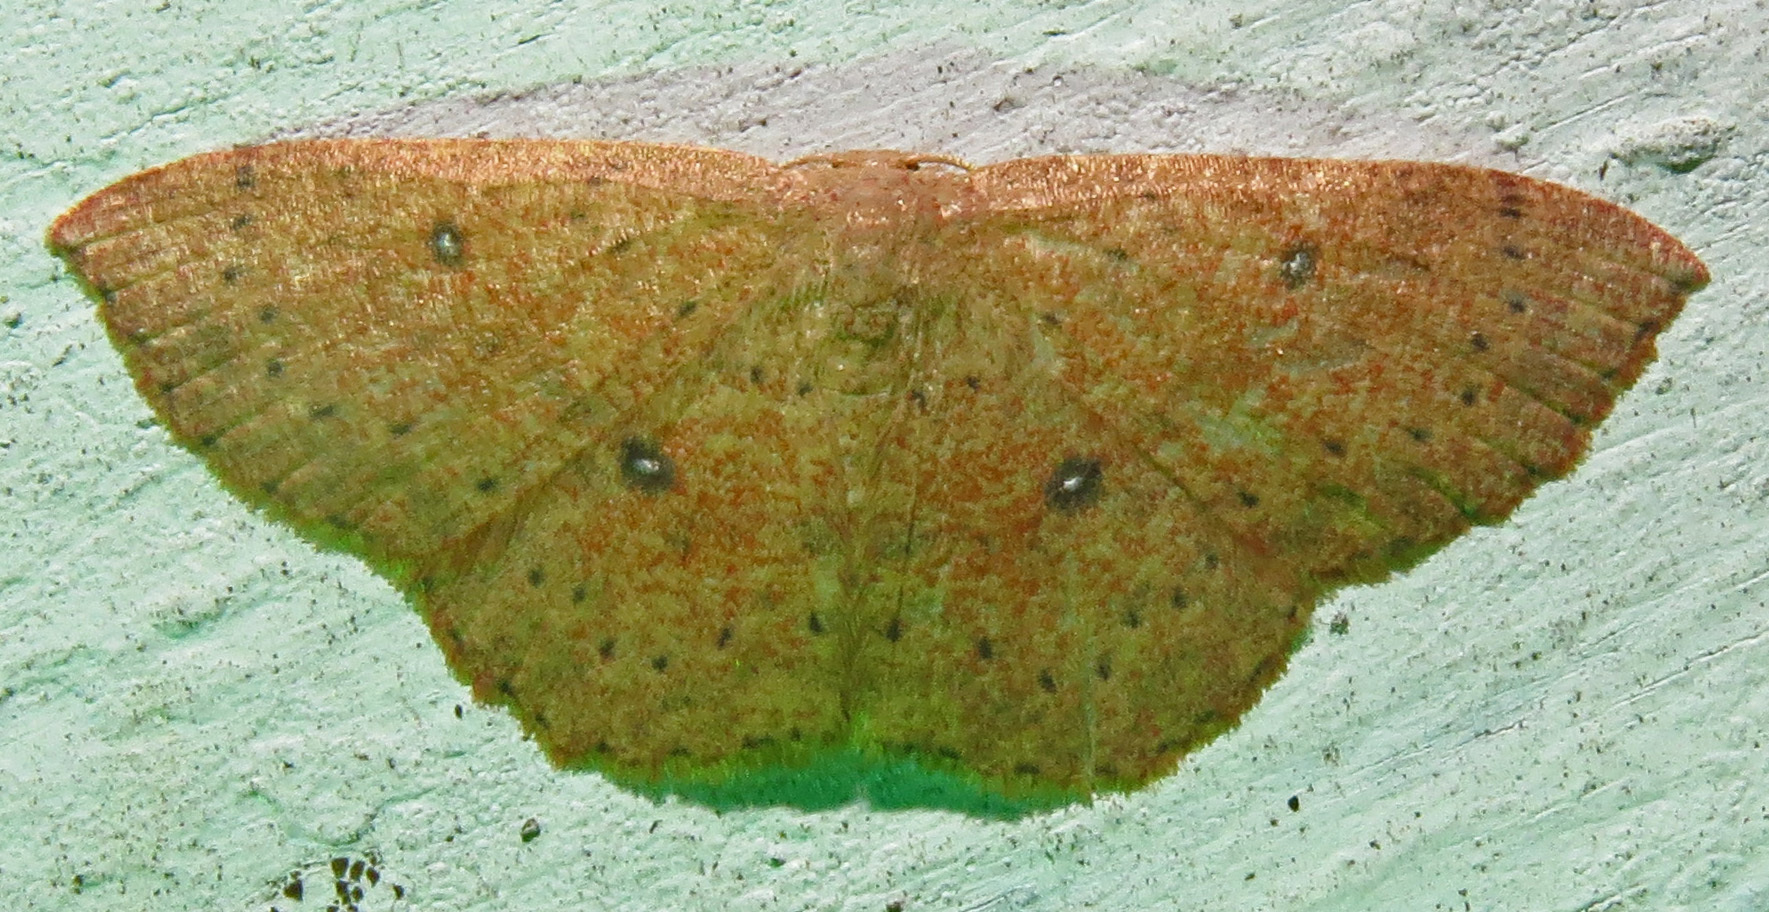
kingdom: Animalia
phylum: Arthropoda
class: Insecta
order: Lepidoptera
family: Geometridae
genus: Cyclophora
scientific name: Cyclophora packardi
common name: Packard's wave
